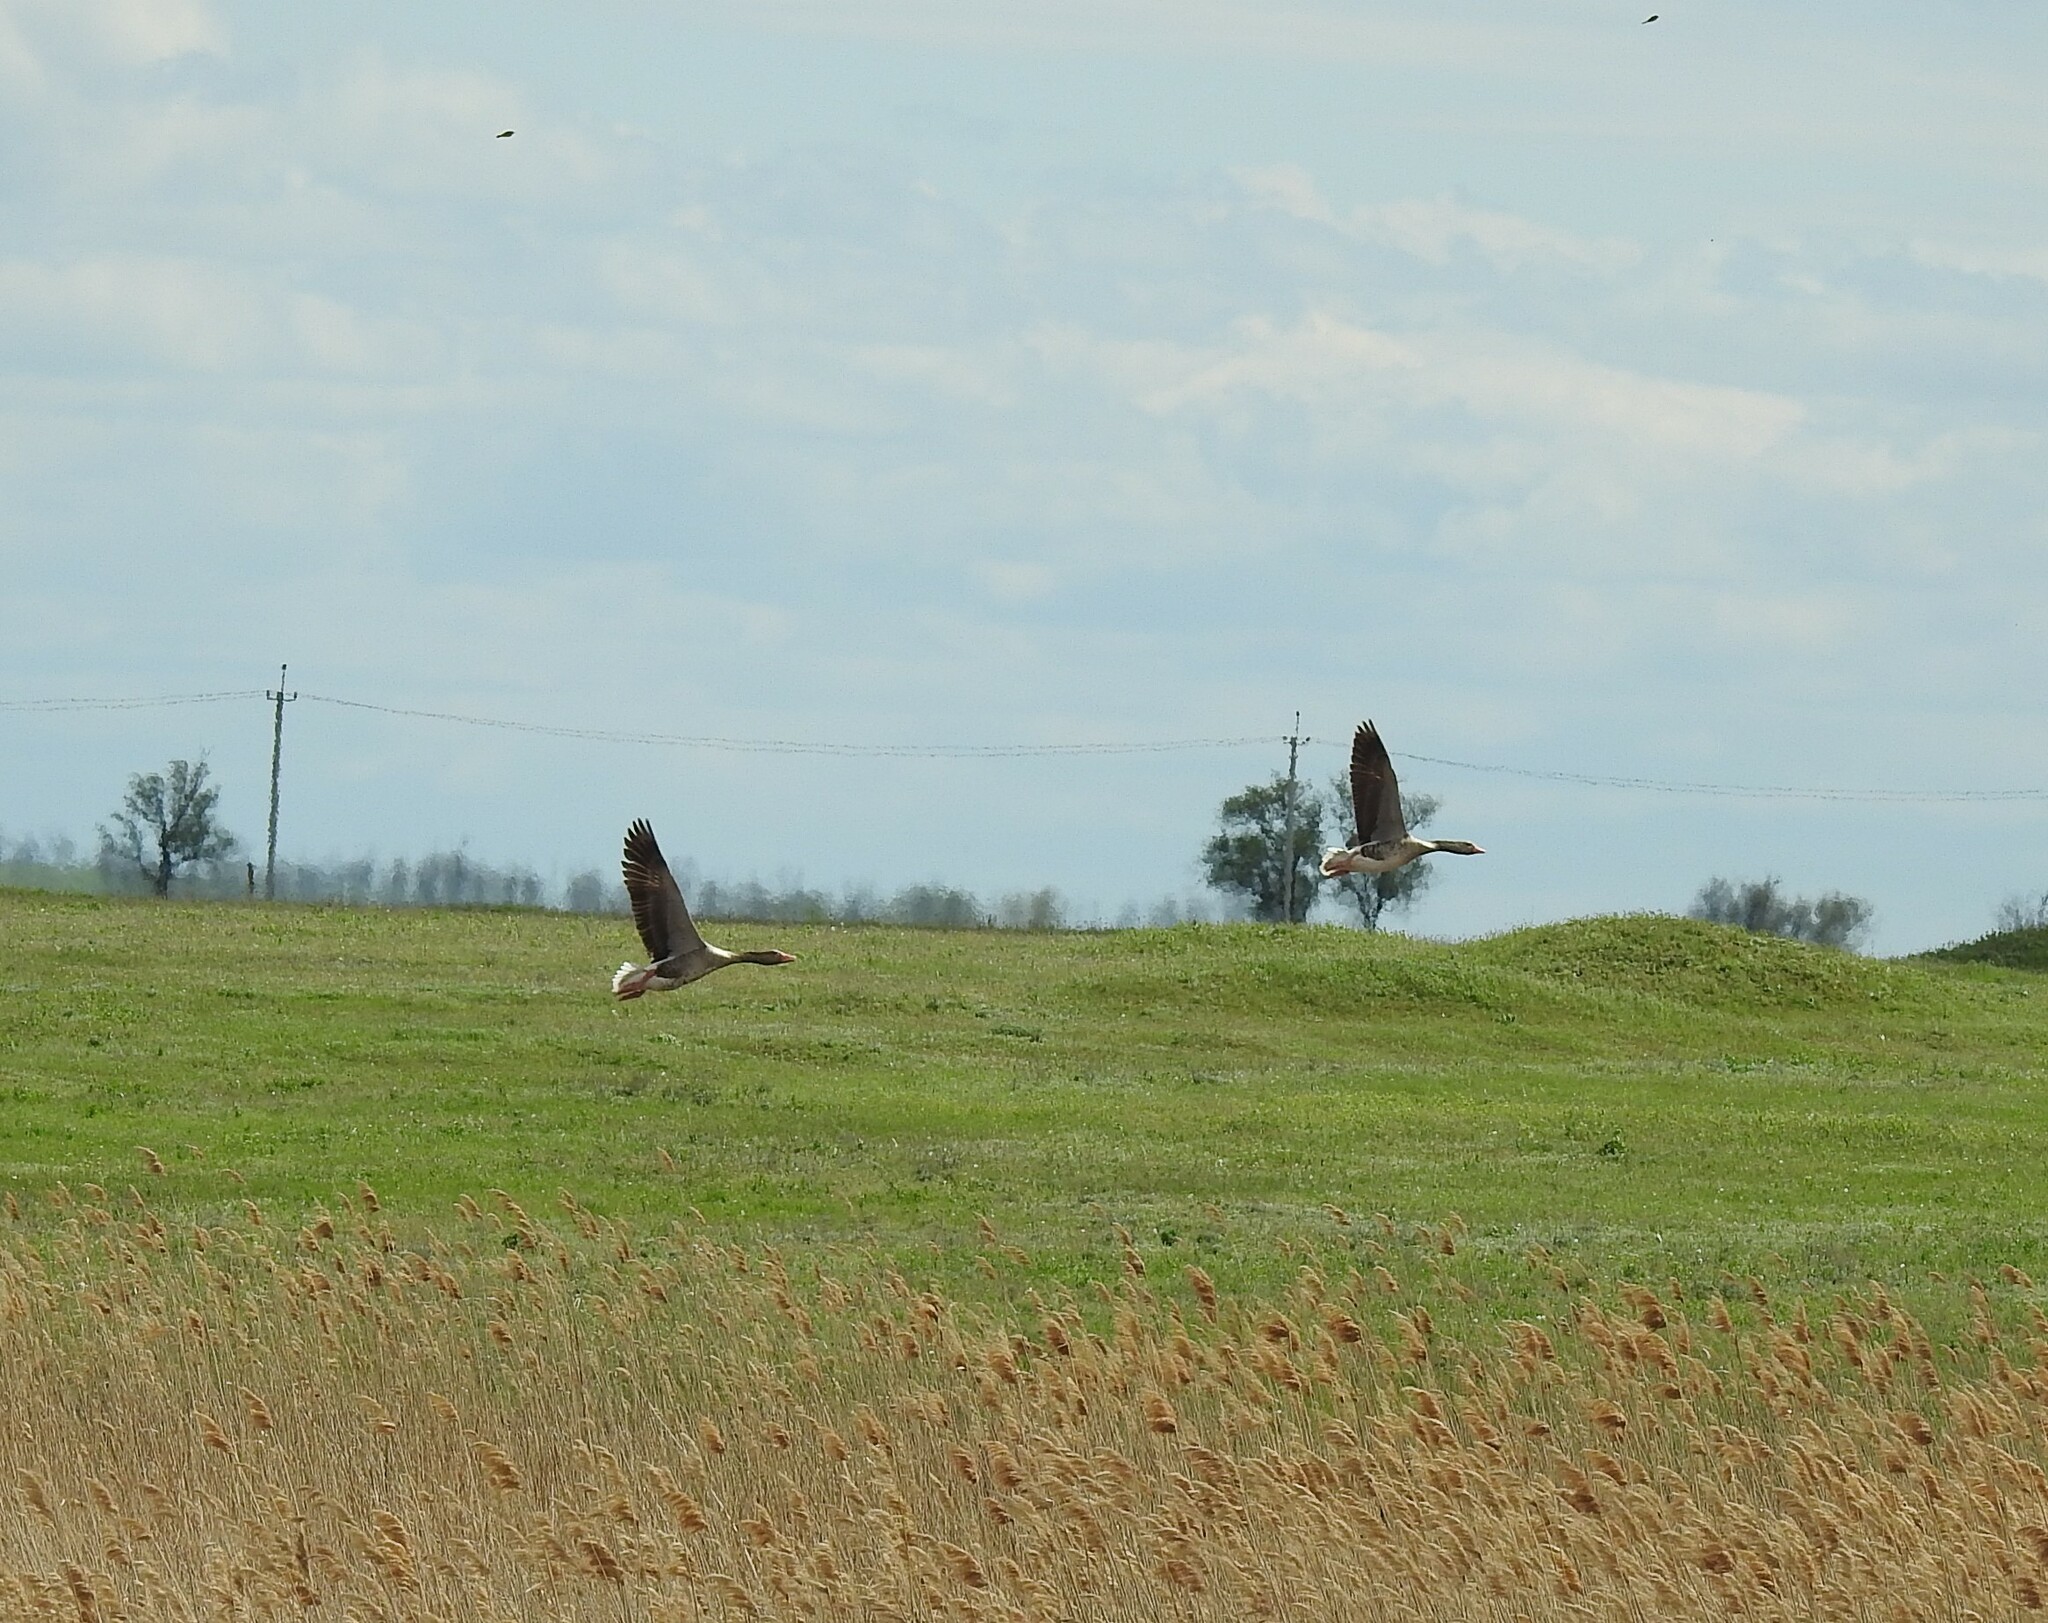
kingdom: Animalia
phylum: Chordata
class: Aves
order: Anseriformes
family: Anatidae
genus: Anser
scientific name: Anser anser
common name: Greylag goose
